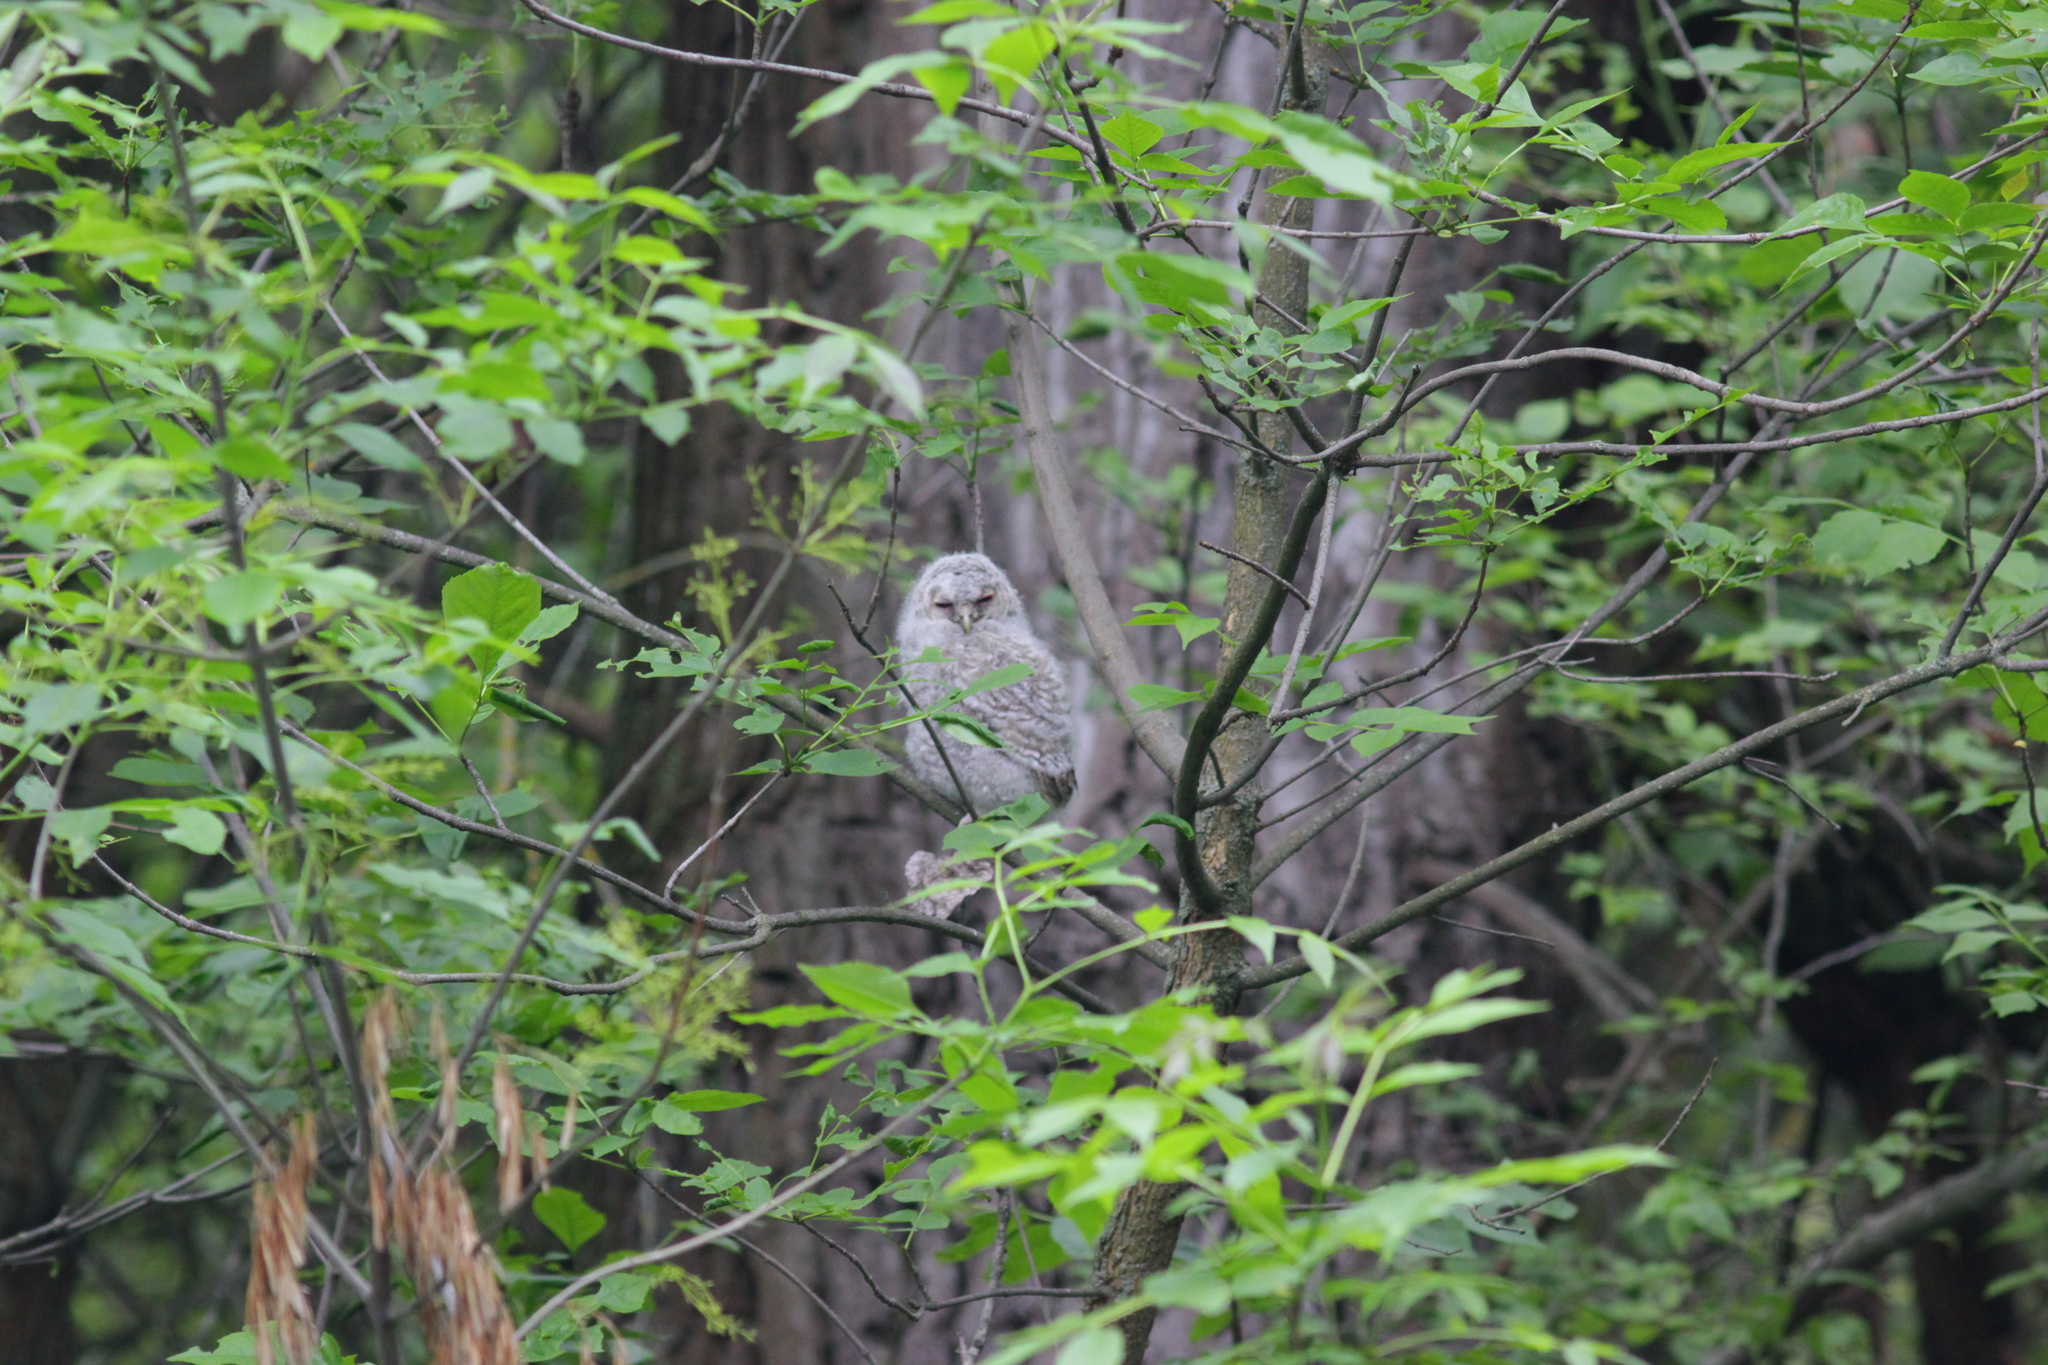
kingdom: Animalia
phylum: Chordata
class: Aves
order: Strigiformes
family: Strigidae
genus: Strix
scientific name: Strix aluco
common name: Tawny owl
